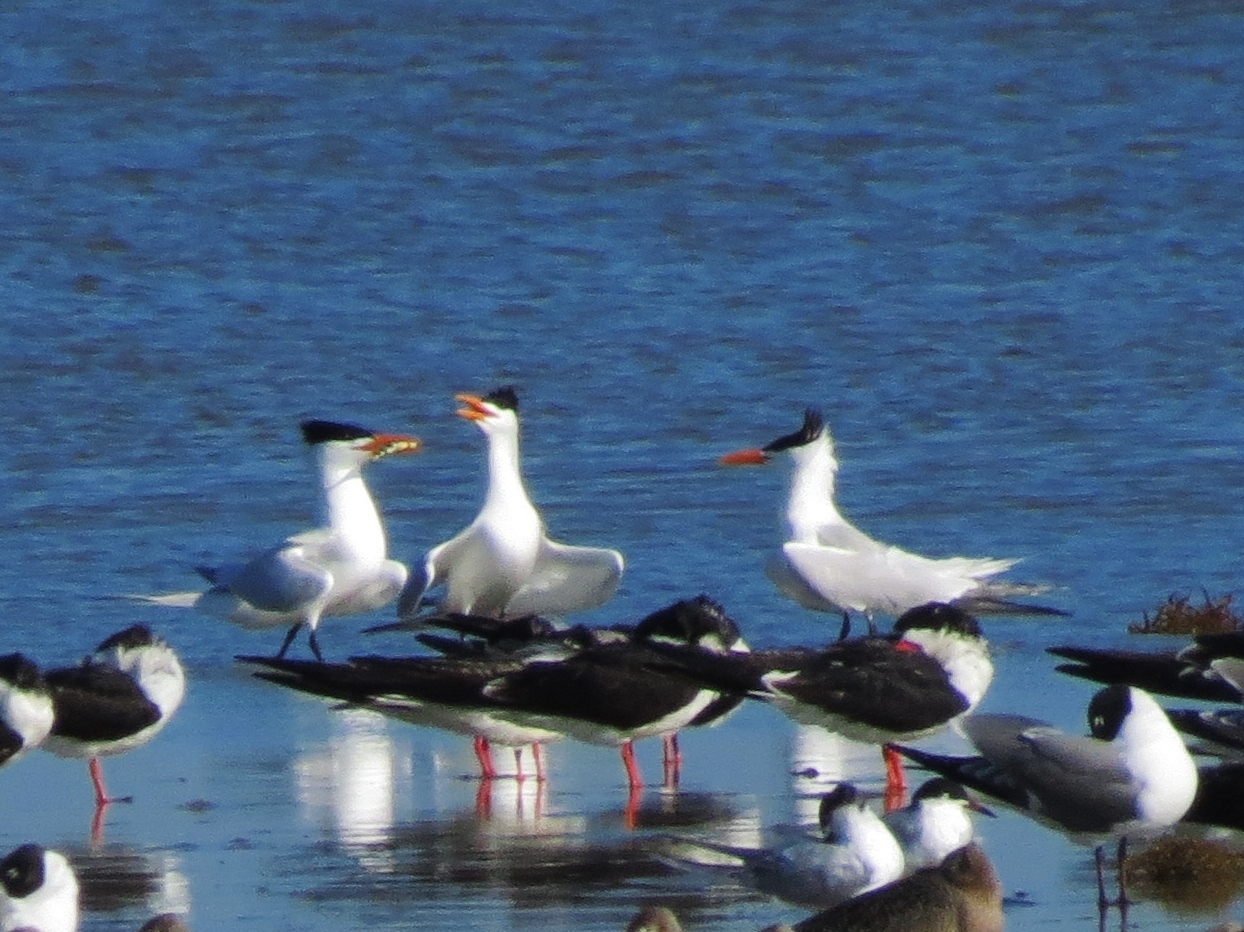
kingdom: Animalia
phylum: Chordata
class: Aves
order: Charadriiformes
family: Laridae
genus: Thalasseus
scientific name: Thalasseus maximus
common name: Royal tern
